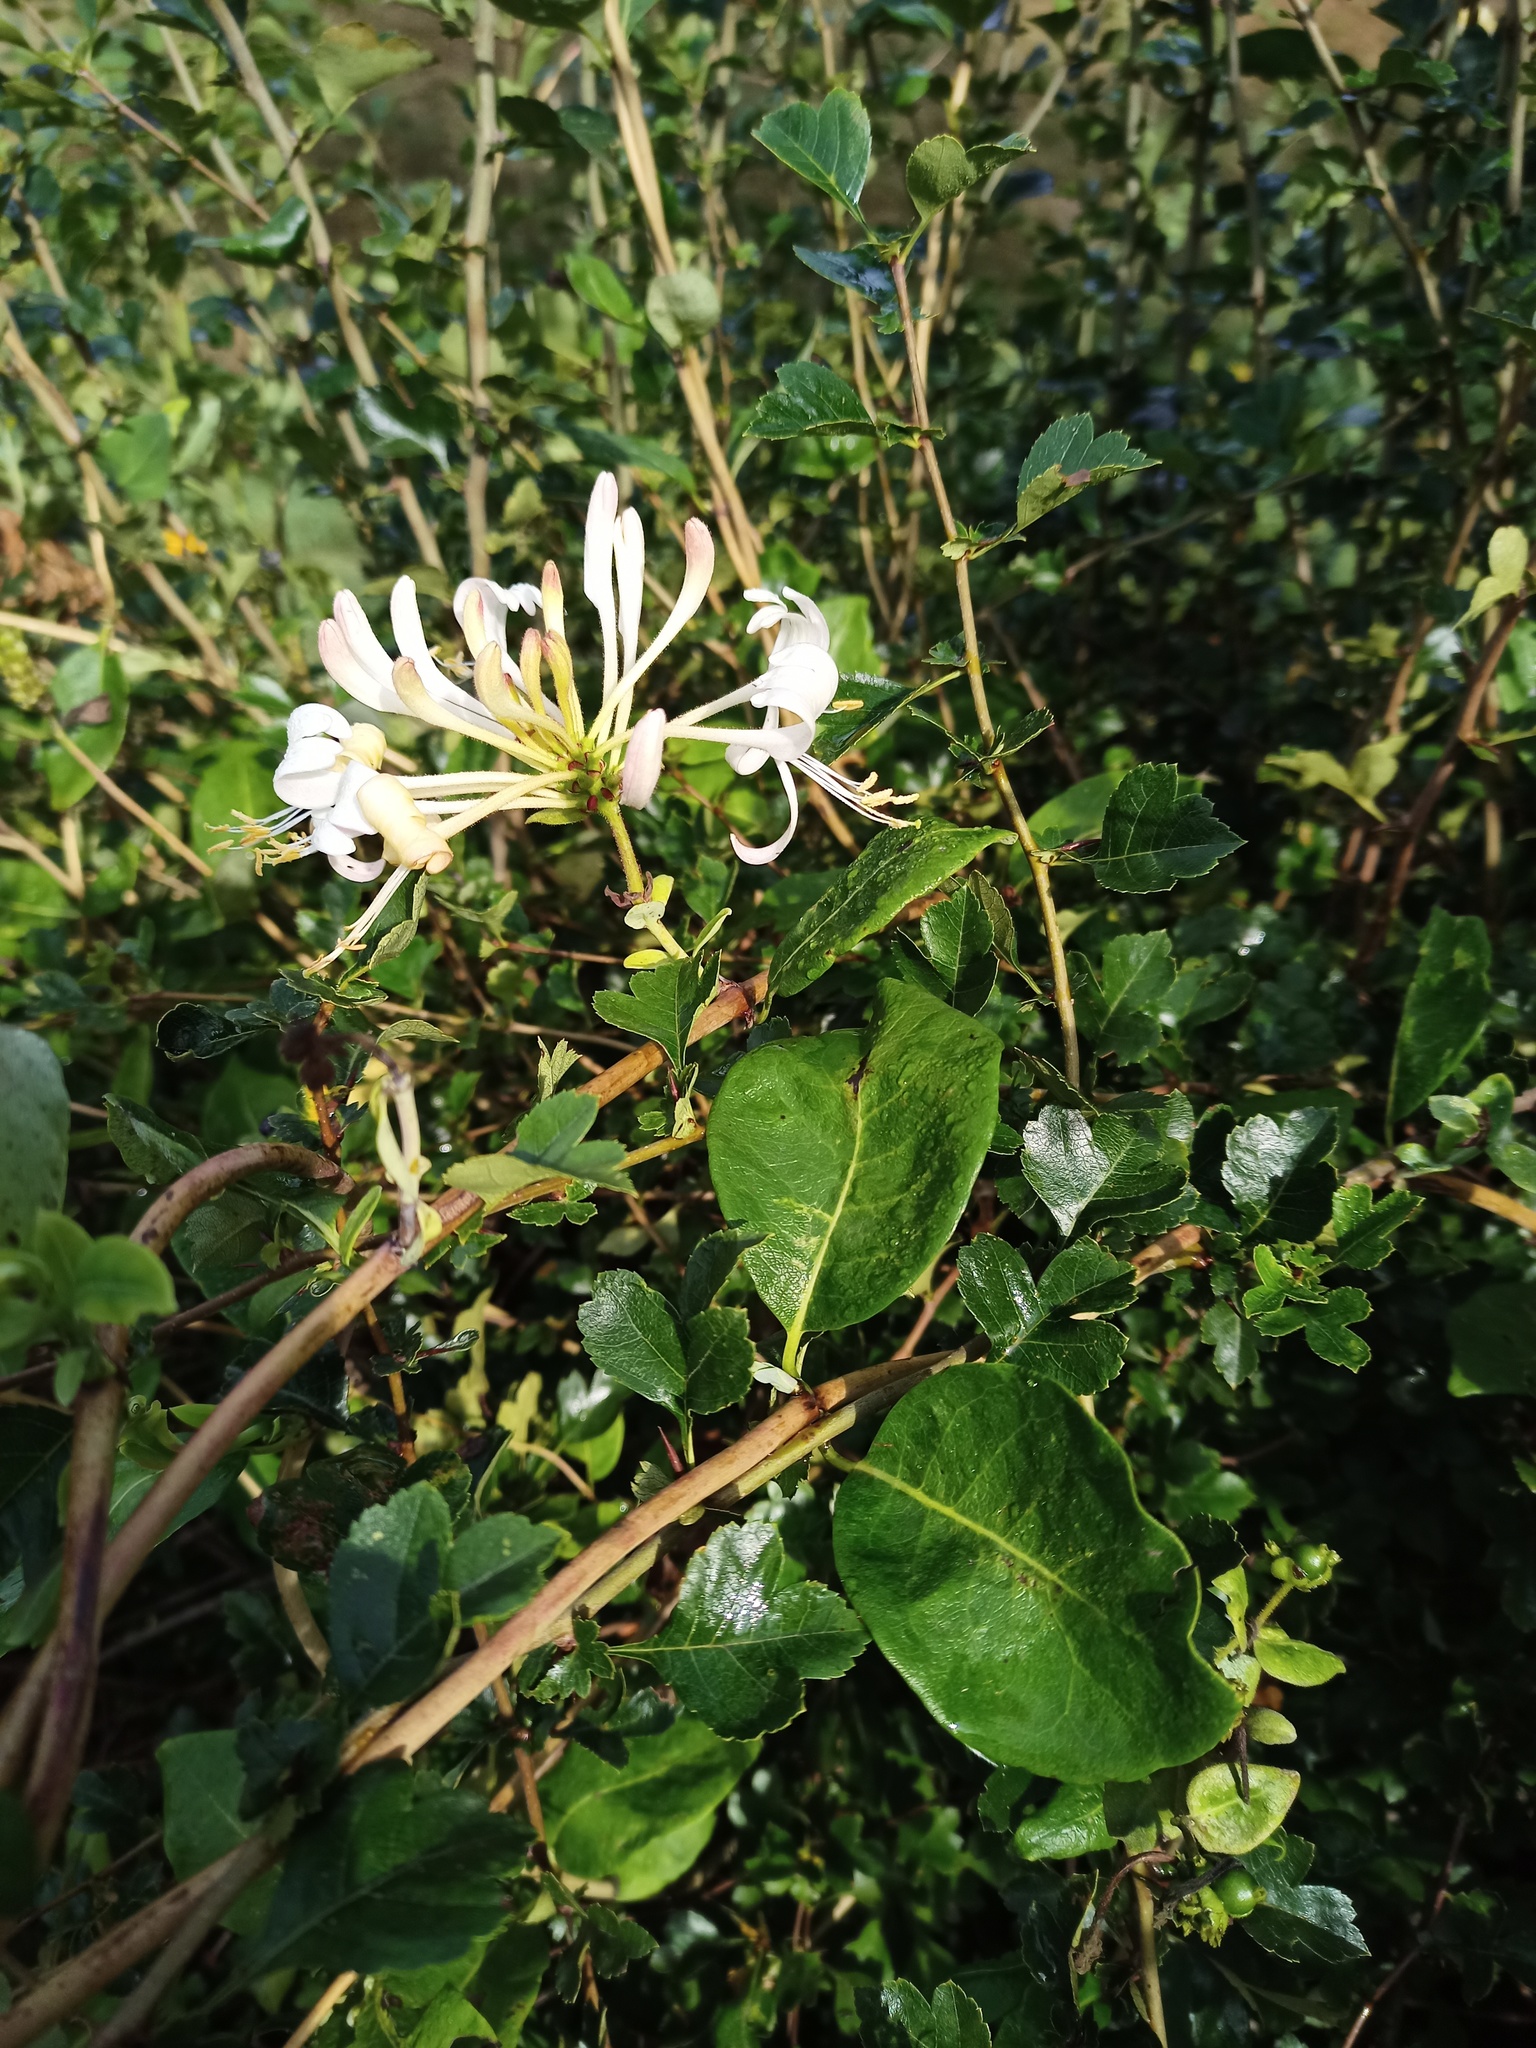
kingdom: Plantae
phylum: Tracheophyta
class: Magnoliopsida
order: Dipsacales
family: Caprifoliaceae
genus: Lonicera
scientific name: Lonicera periclymenum
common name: European honeysuckle
